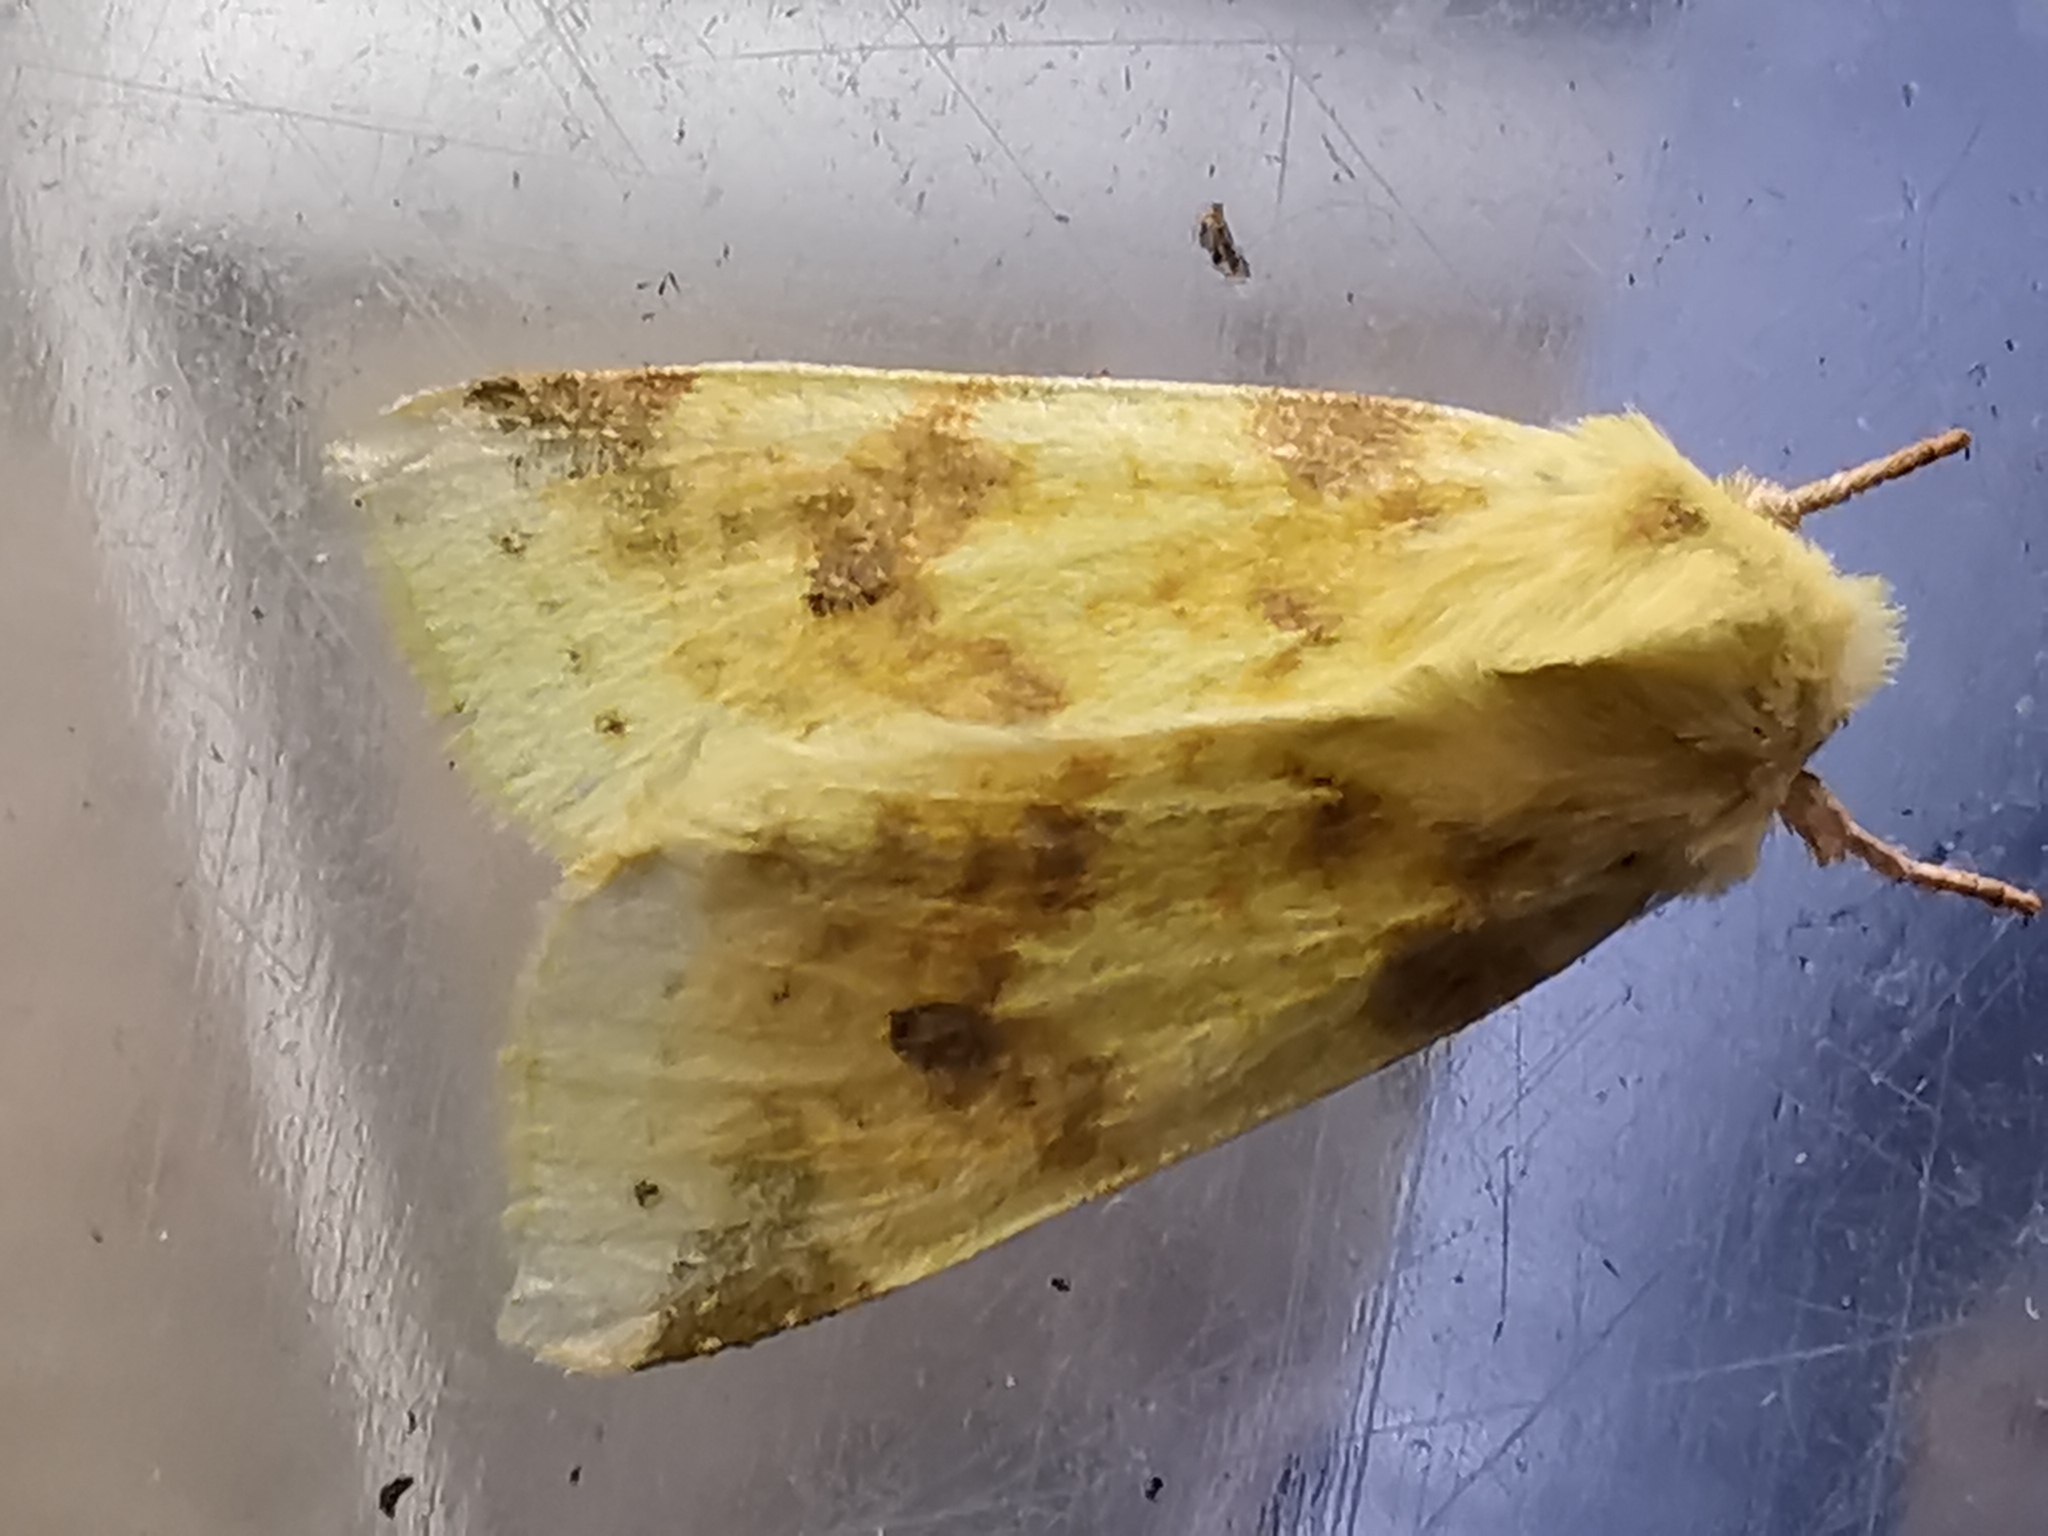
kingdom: Animalia
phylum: Arthropoda
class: Insecta
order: Lepidoptera
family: Noctuidae
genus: Xanthia
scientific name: Xanthia icteritia
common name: The sallow
